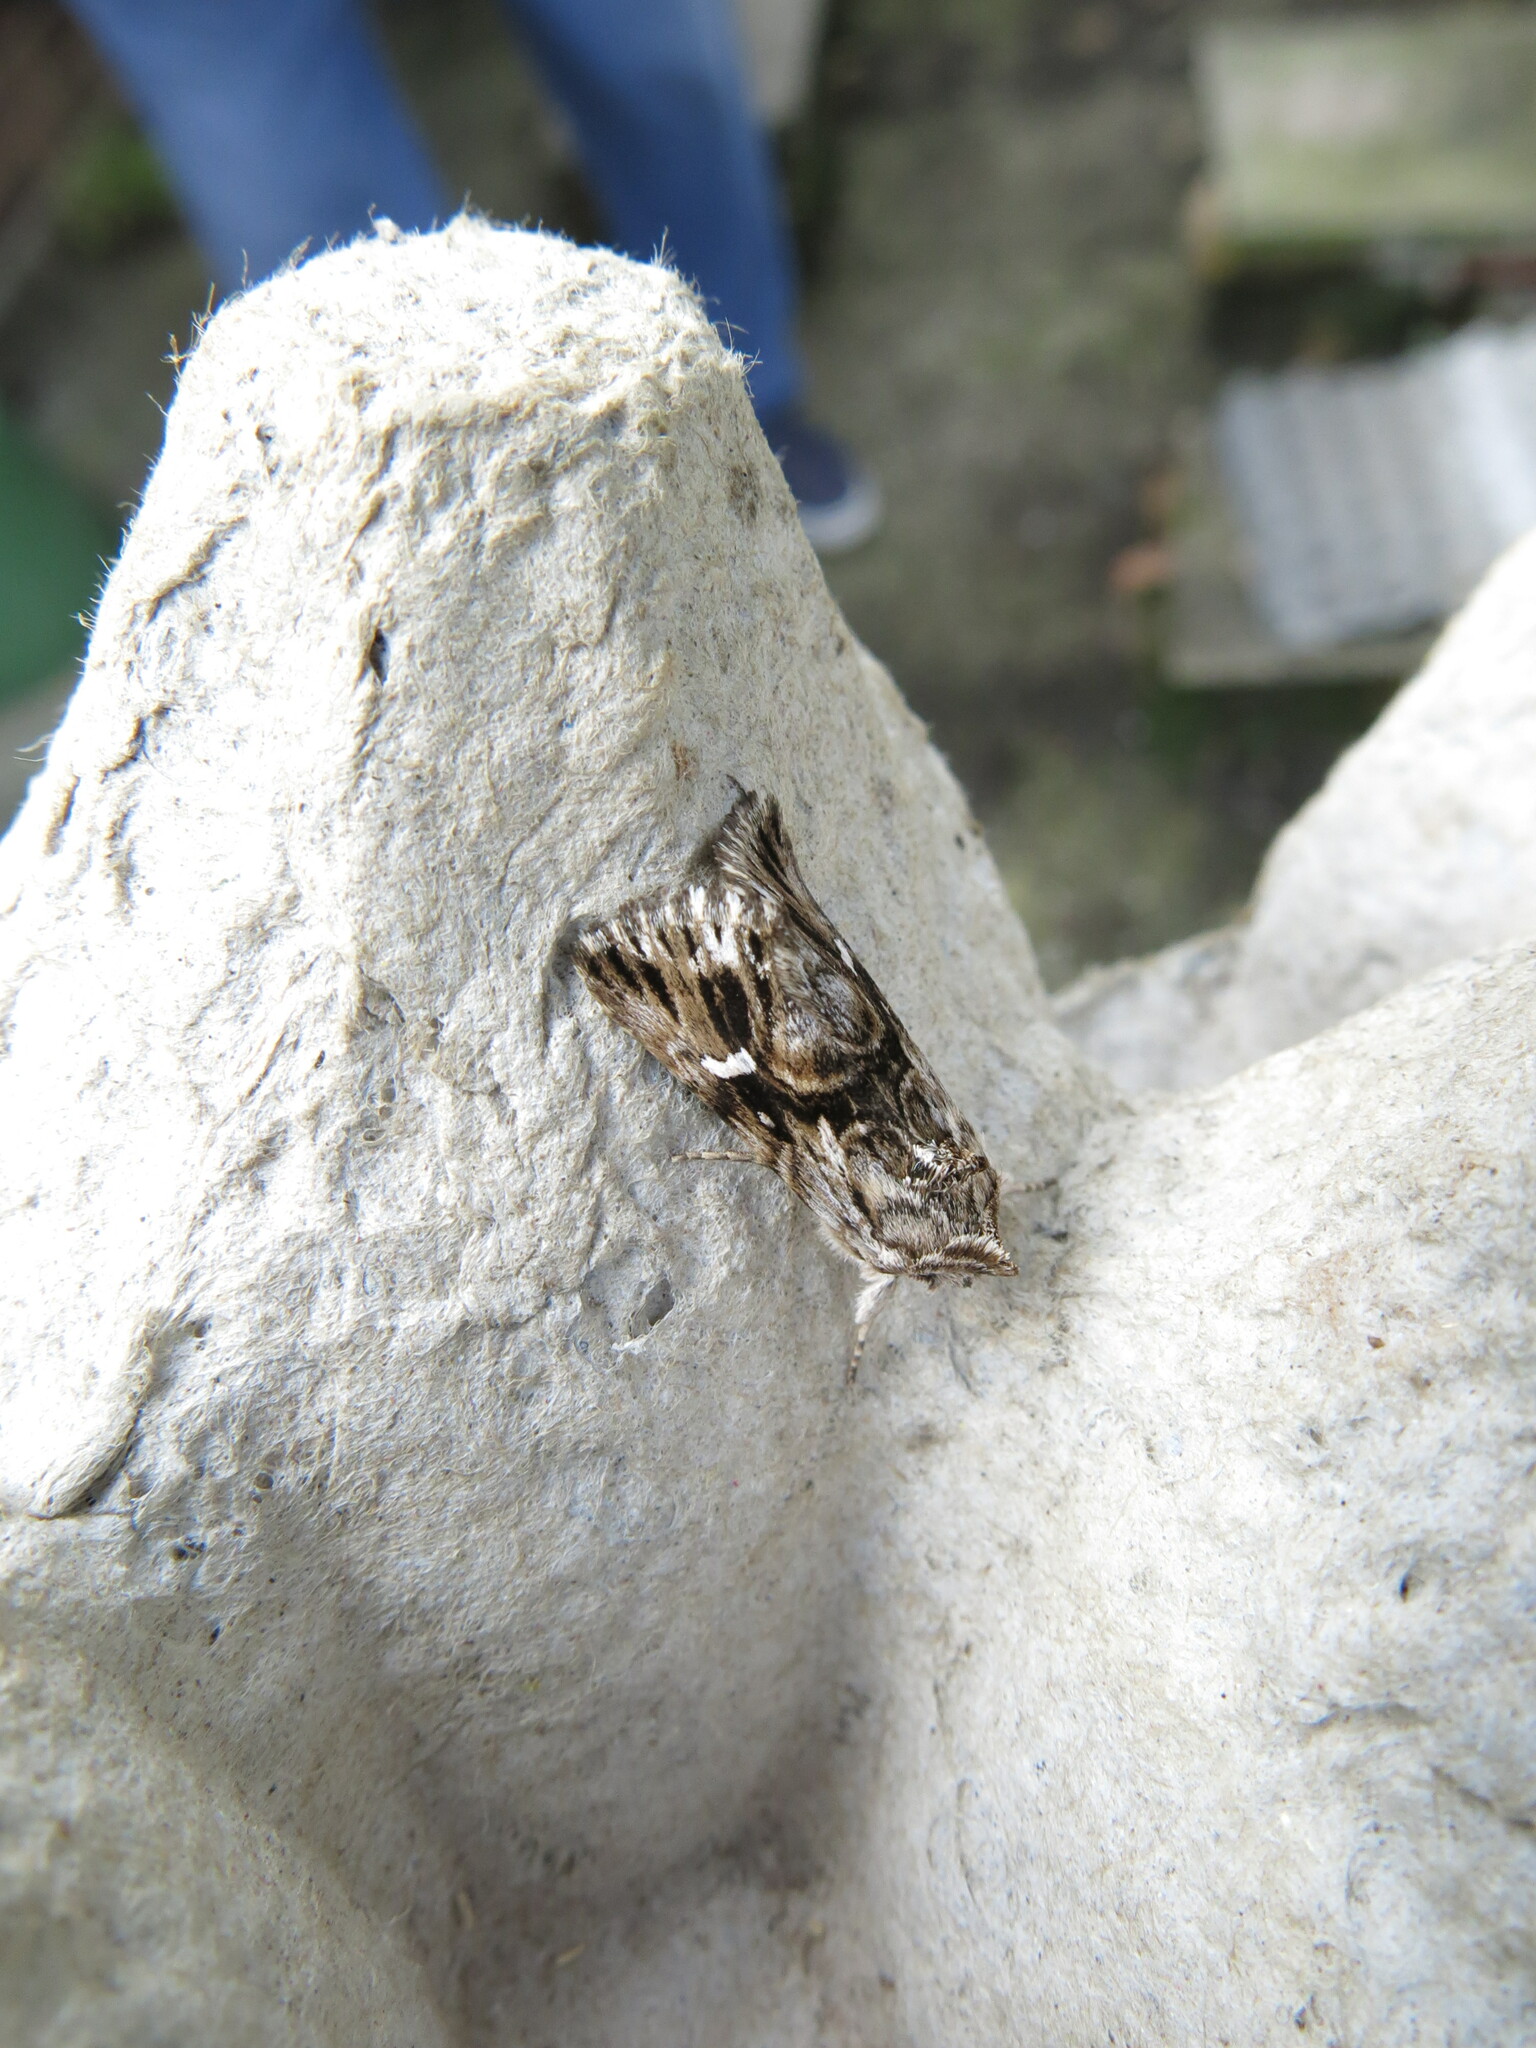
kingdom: Animalia
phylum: Arthropoda
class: Insecta
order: Lepidoptera
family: Noctuidae
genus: Calophasia
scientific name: Calophasia lunula
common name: Toadflax brocade
